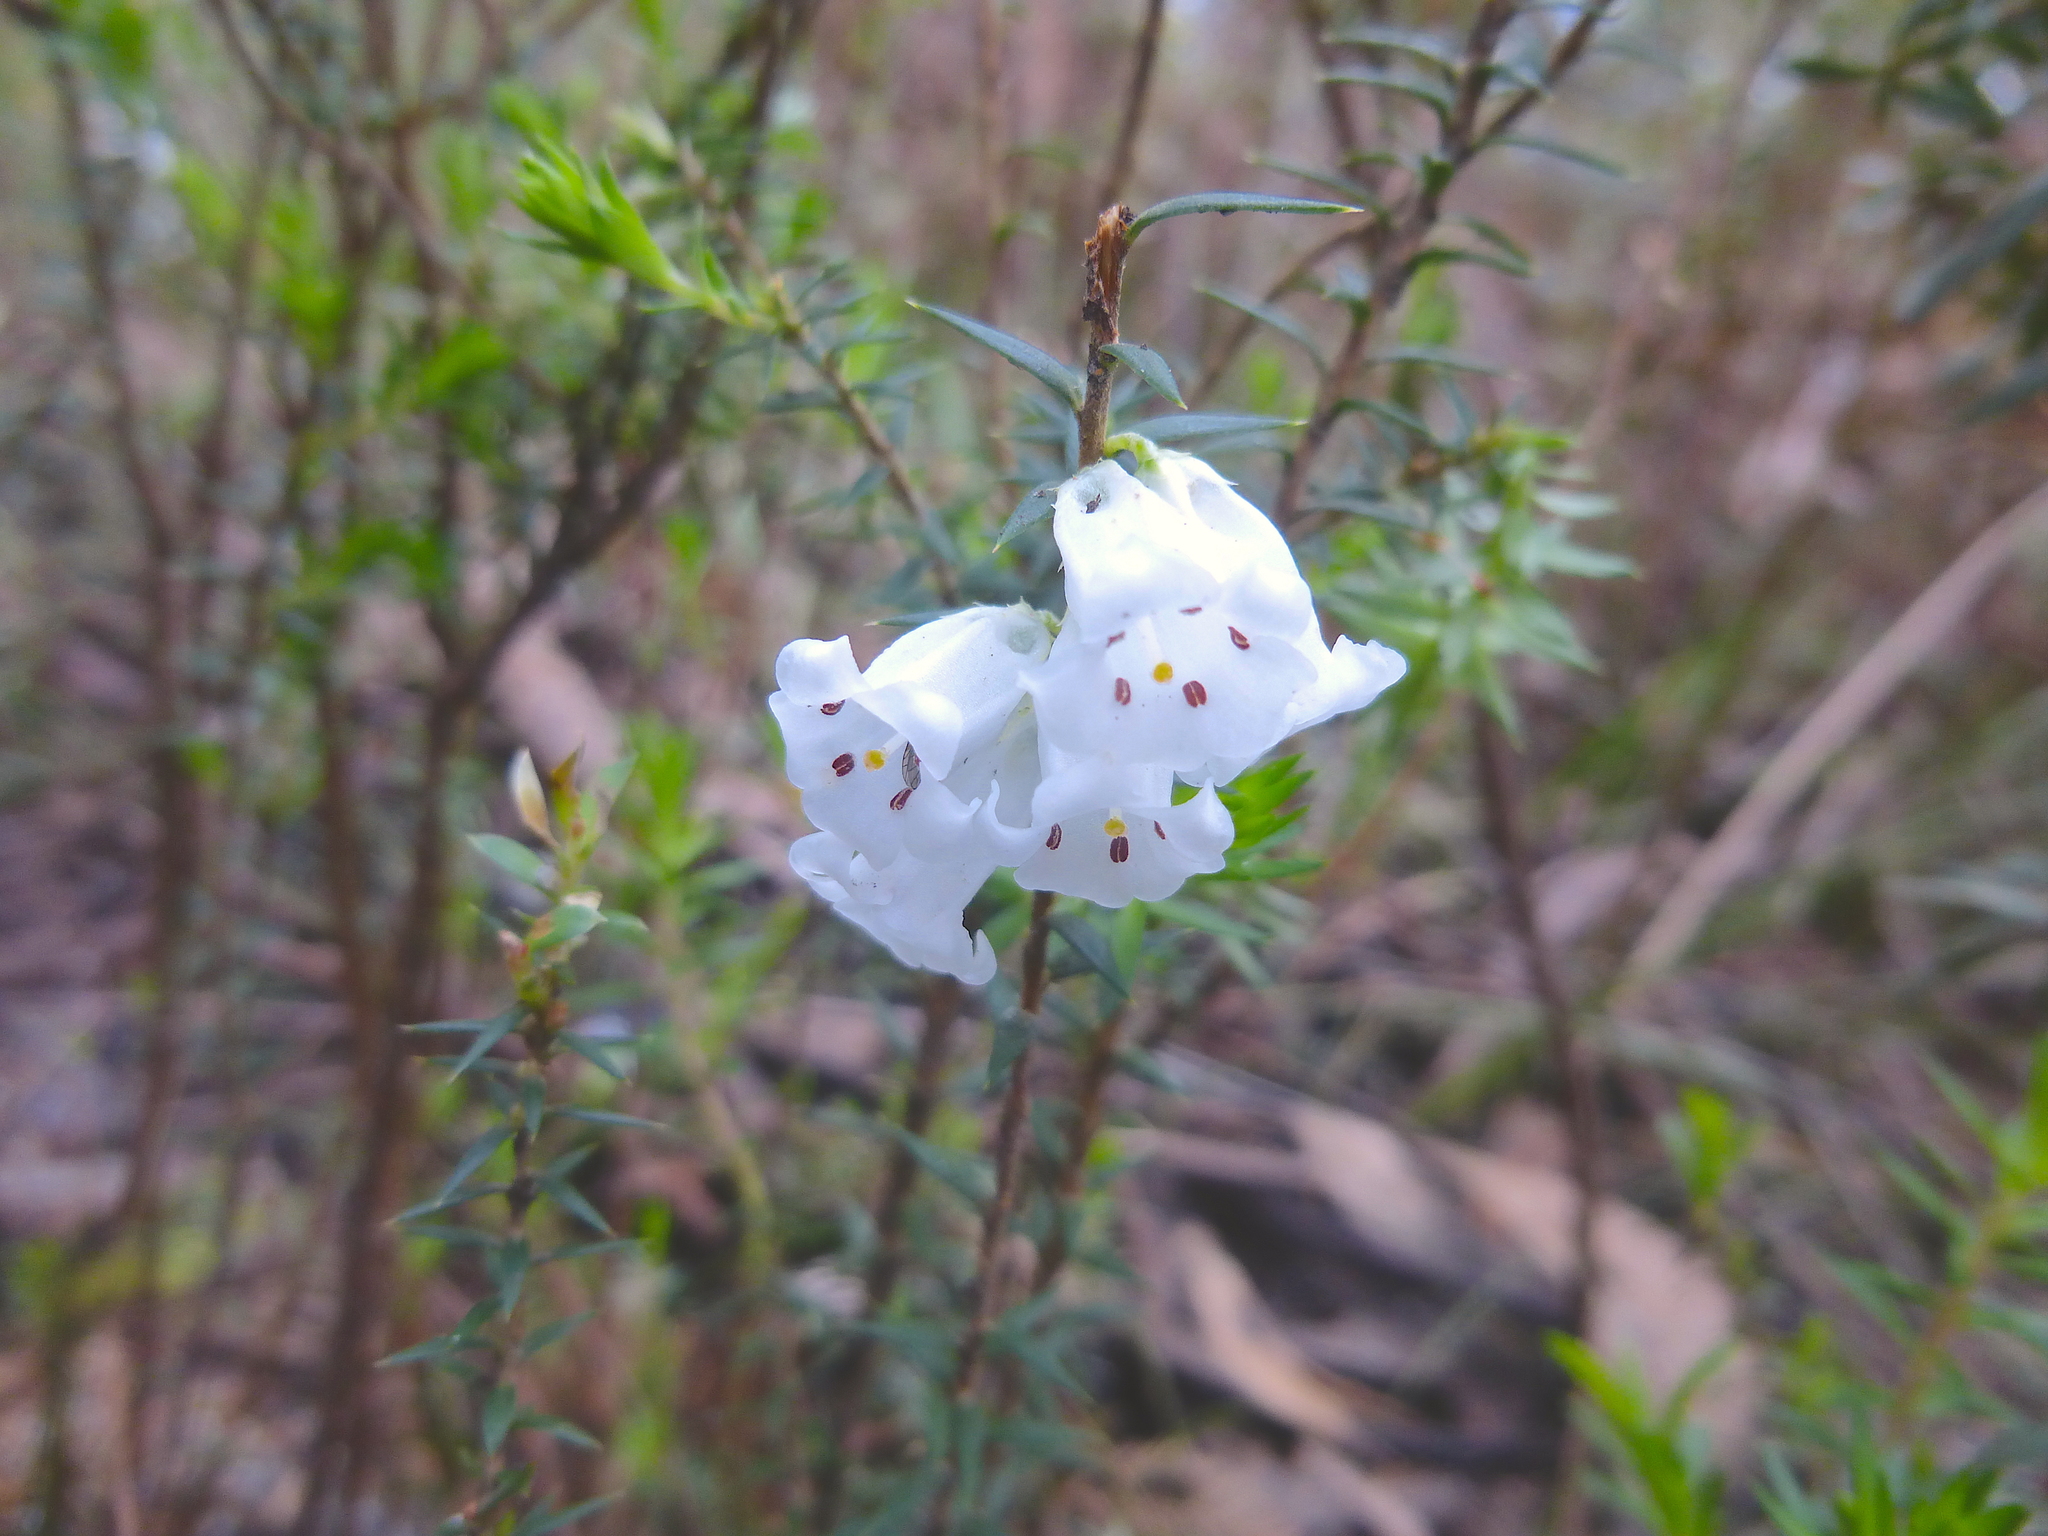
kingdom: Plantae
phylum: Tracheophyta
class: Magnoliopsida
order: Ericales
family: Ericaceae
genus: Epacris
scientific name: Epacris impressa
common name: Common-heath
